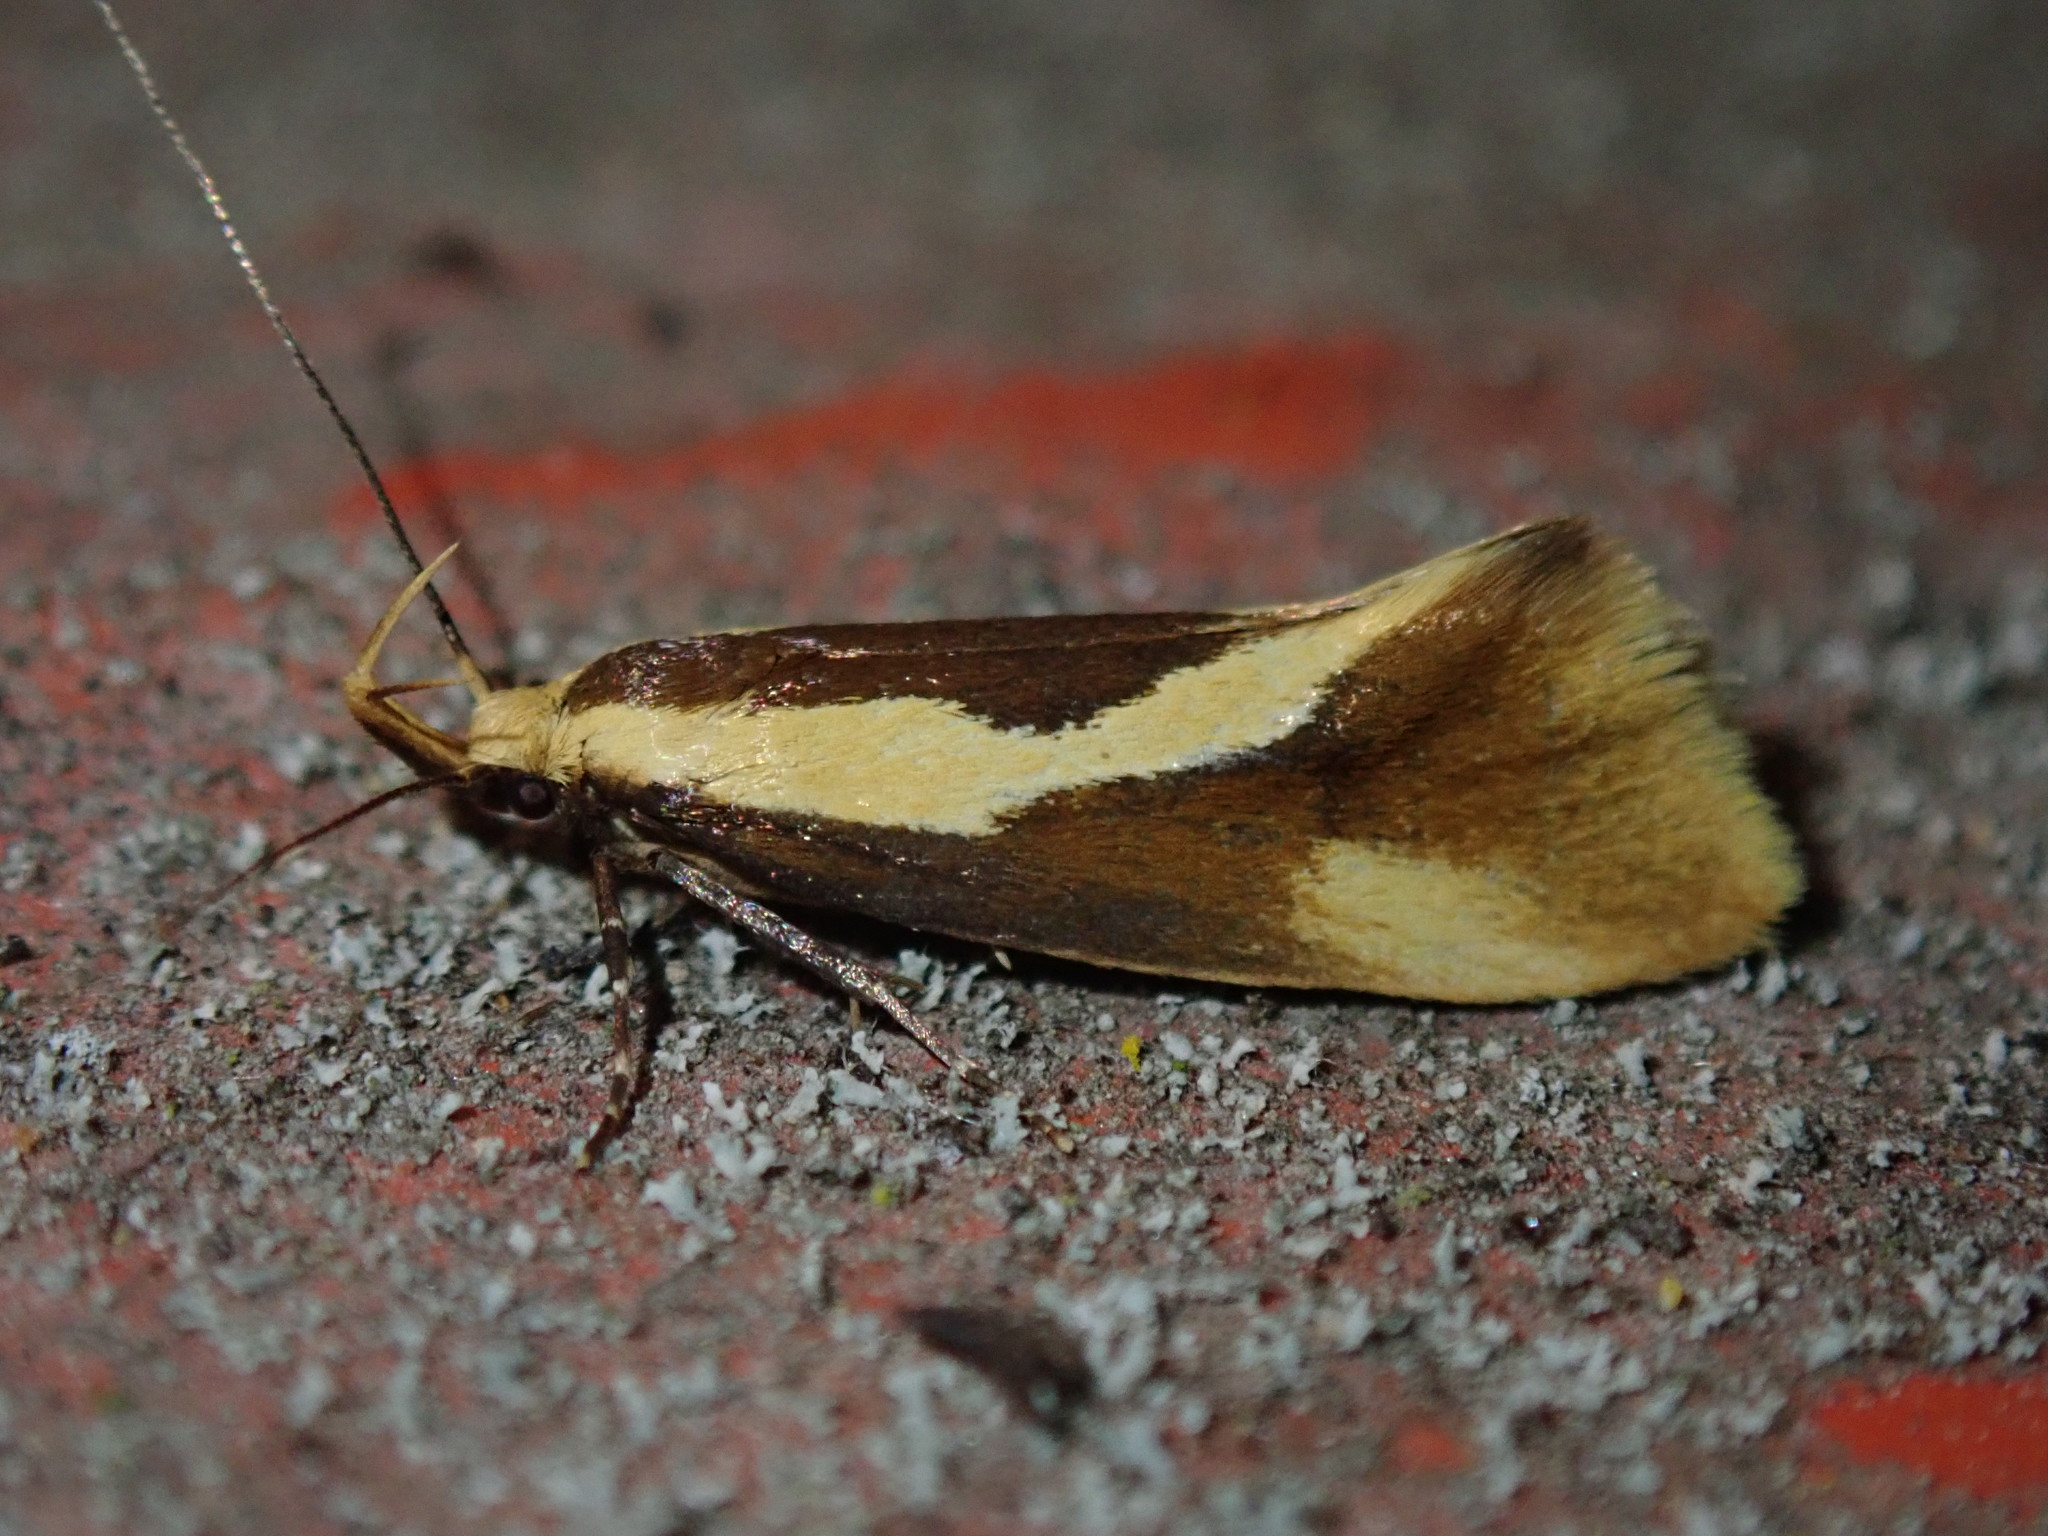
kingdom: Animalia
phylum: Arthropoda
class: Insecta
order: Lepidoptera
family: Oecophoridae
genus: Harpella
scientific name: Harpella forficella
